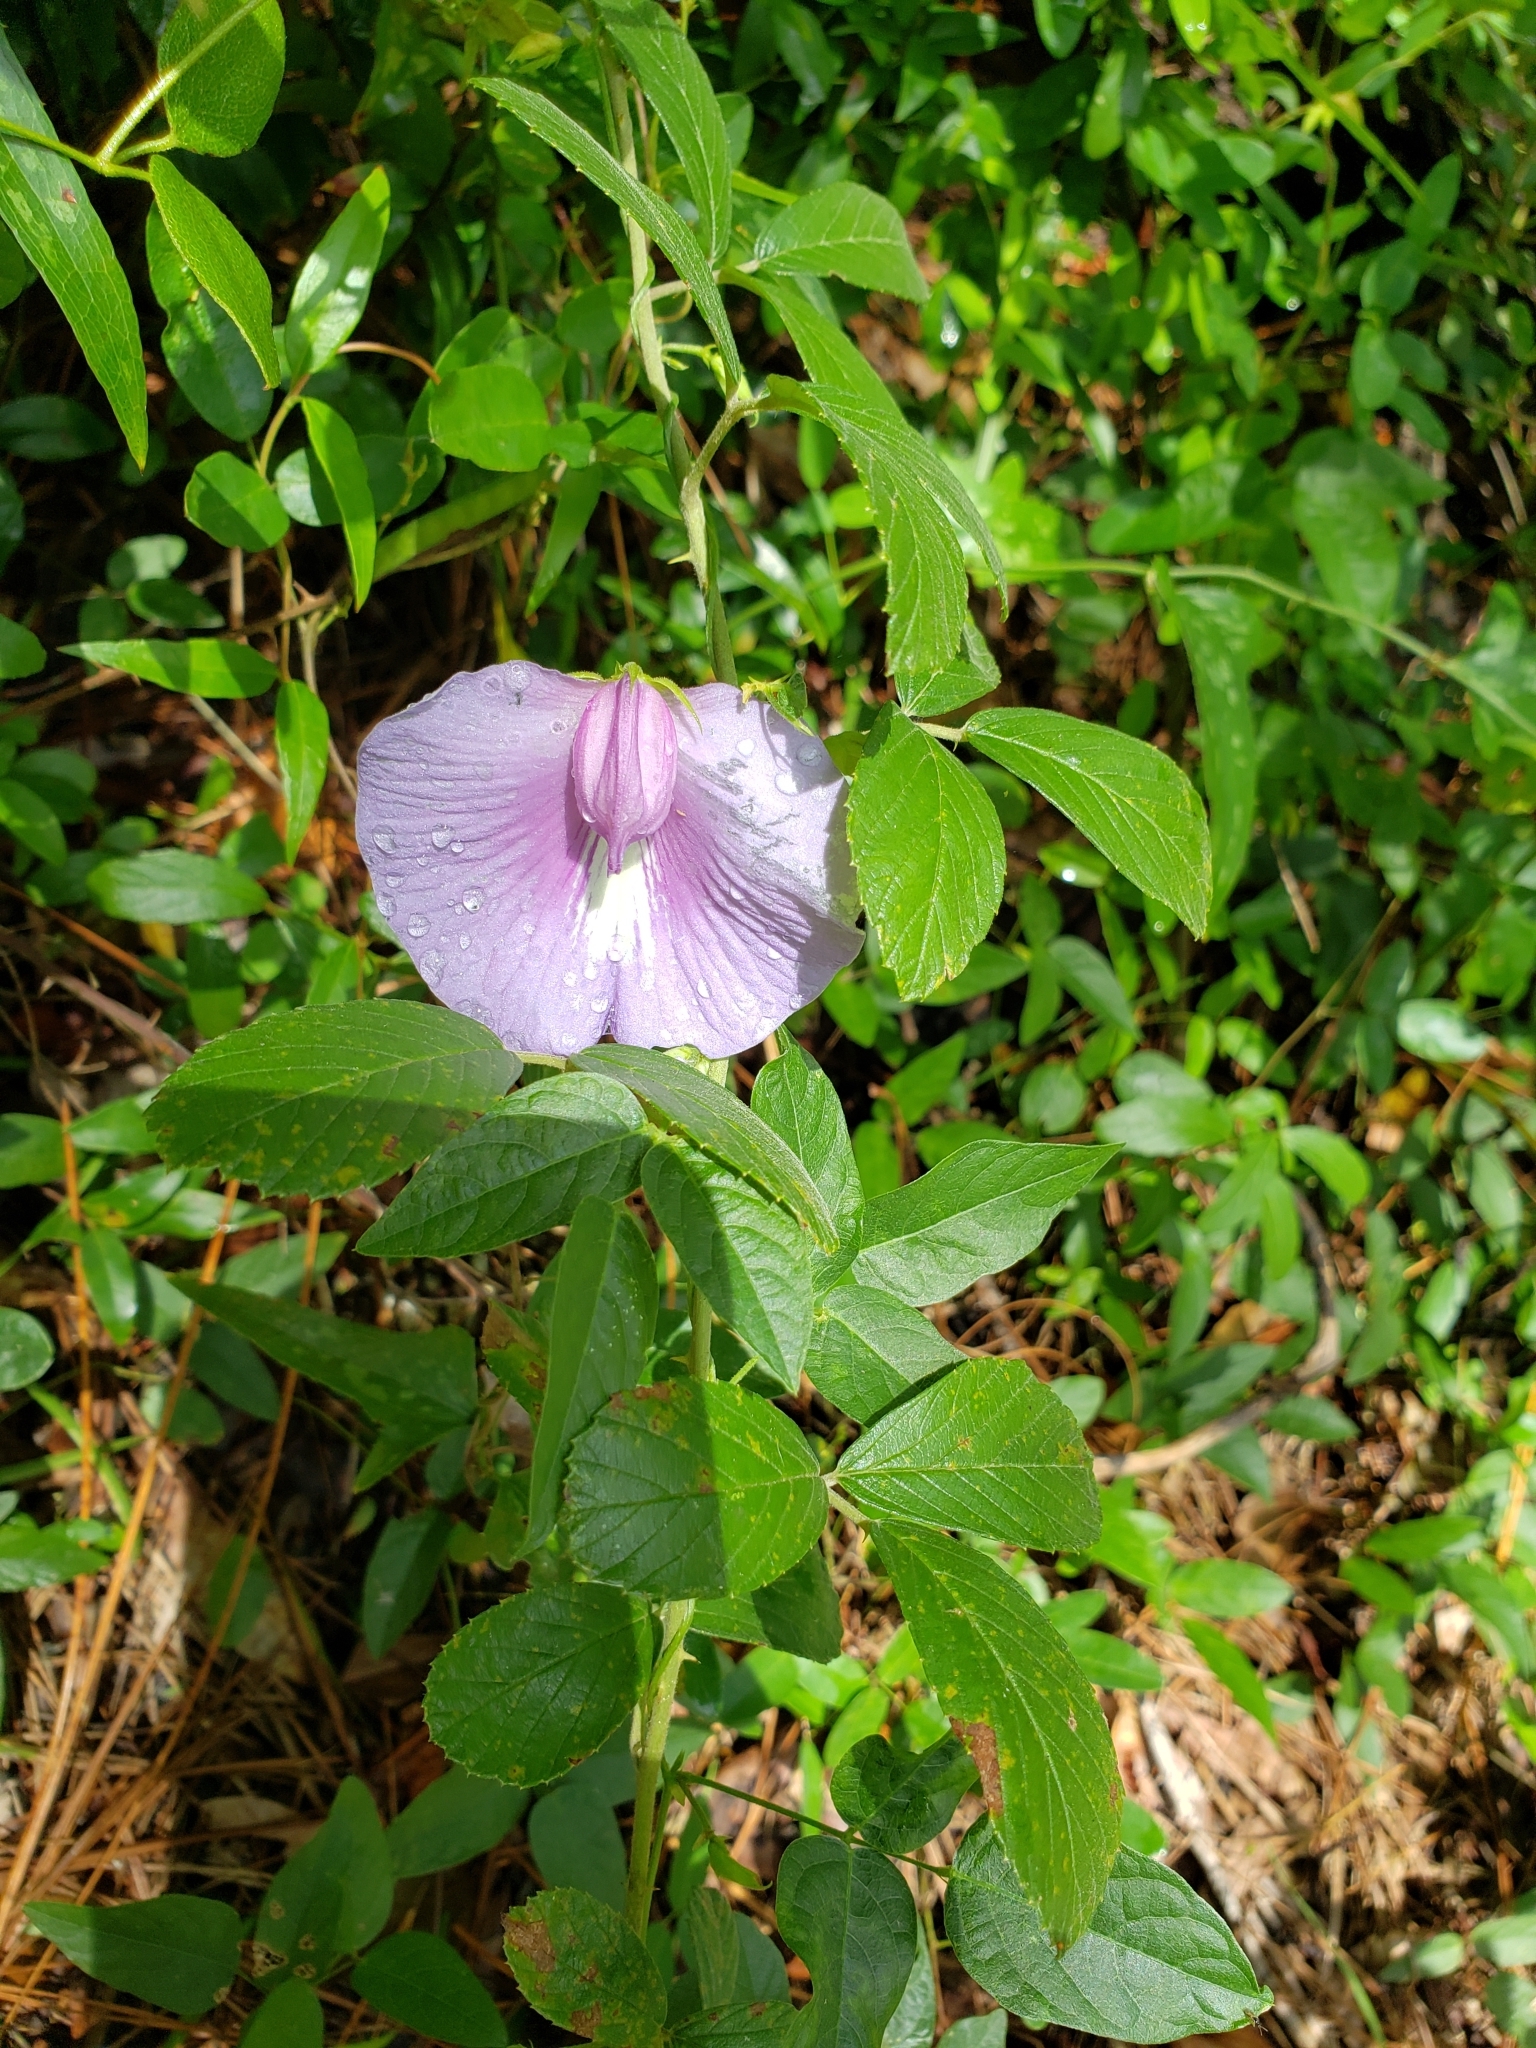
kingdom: Plantae
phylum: Tracheophyta
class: Magnoliopsida
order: Fabales
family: Fabaceae
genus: Centrosema
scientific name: Centrosema virginianum
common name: Butterfly-pea
